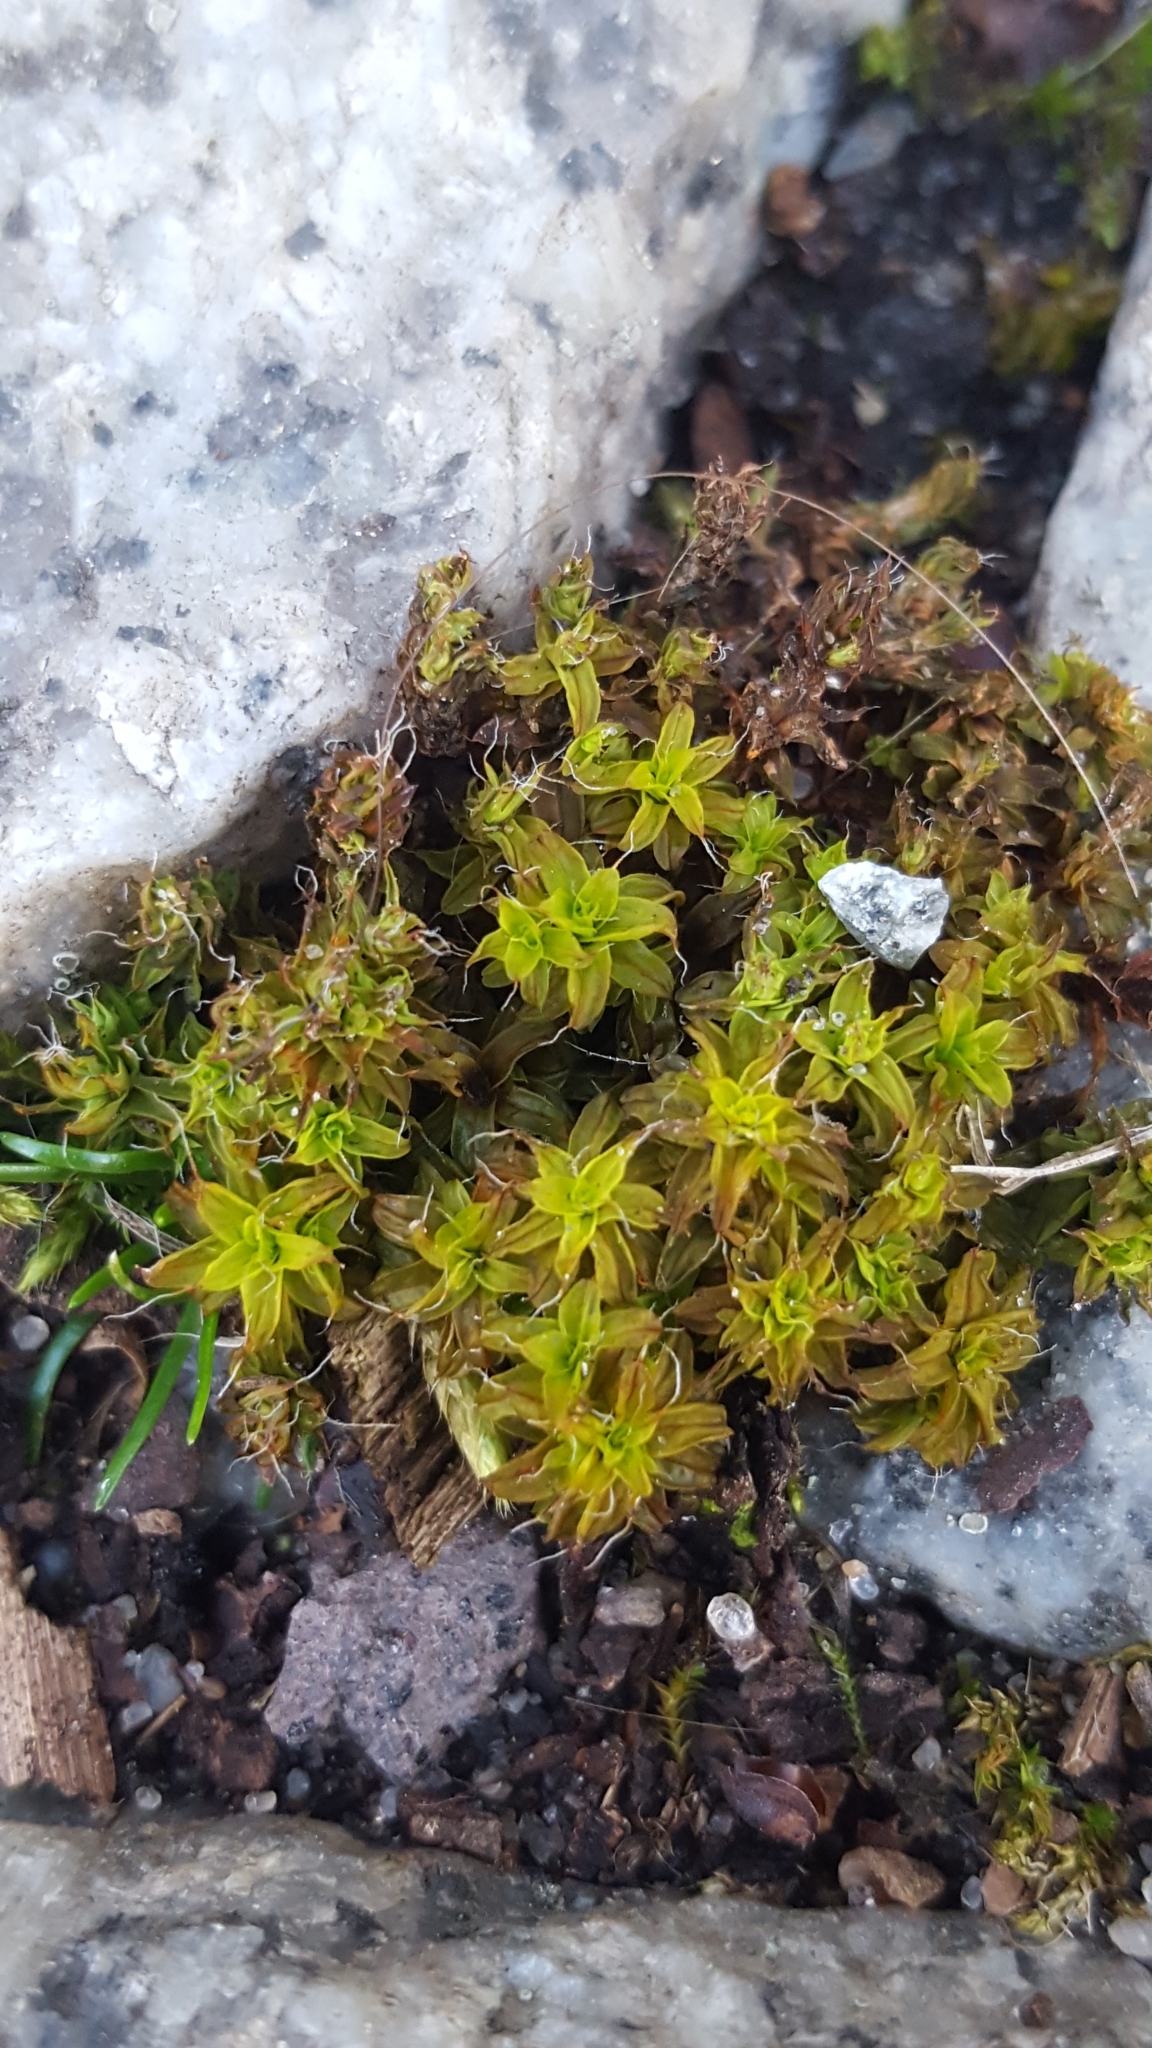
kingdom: Plantae
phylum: Bryophyta
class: Bryopsida
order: Pottiales
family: Pottiaceae
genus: Syntrichia
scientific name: Syntrichia ruralis
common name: Sidewalk screw moss
